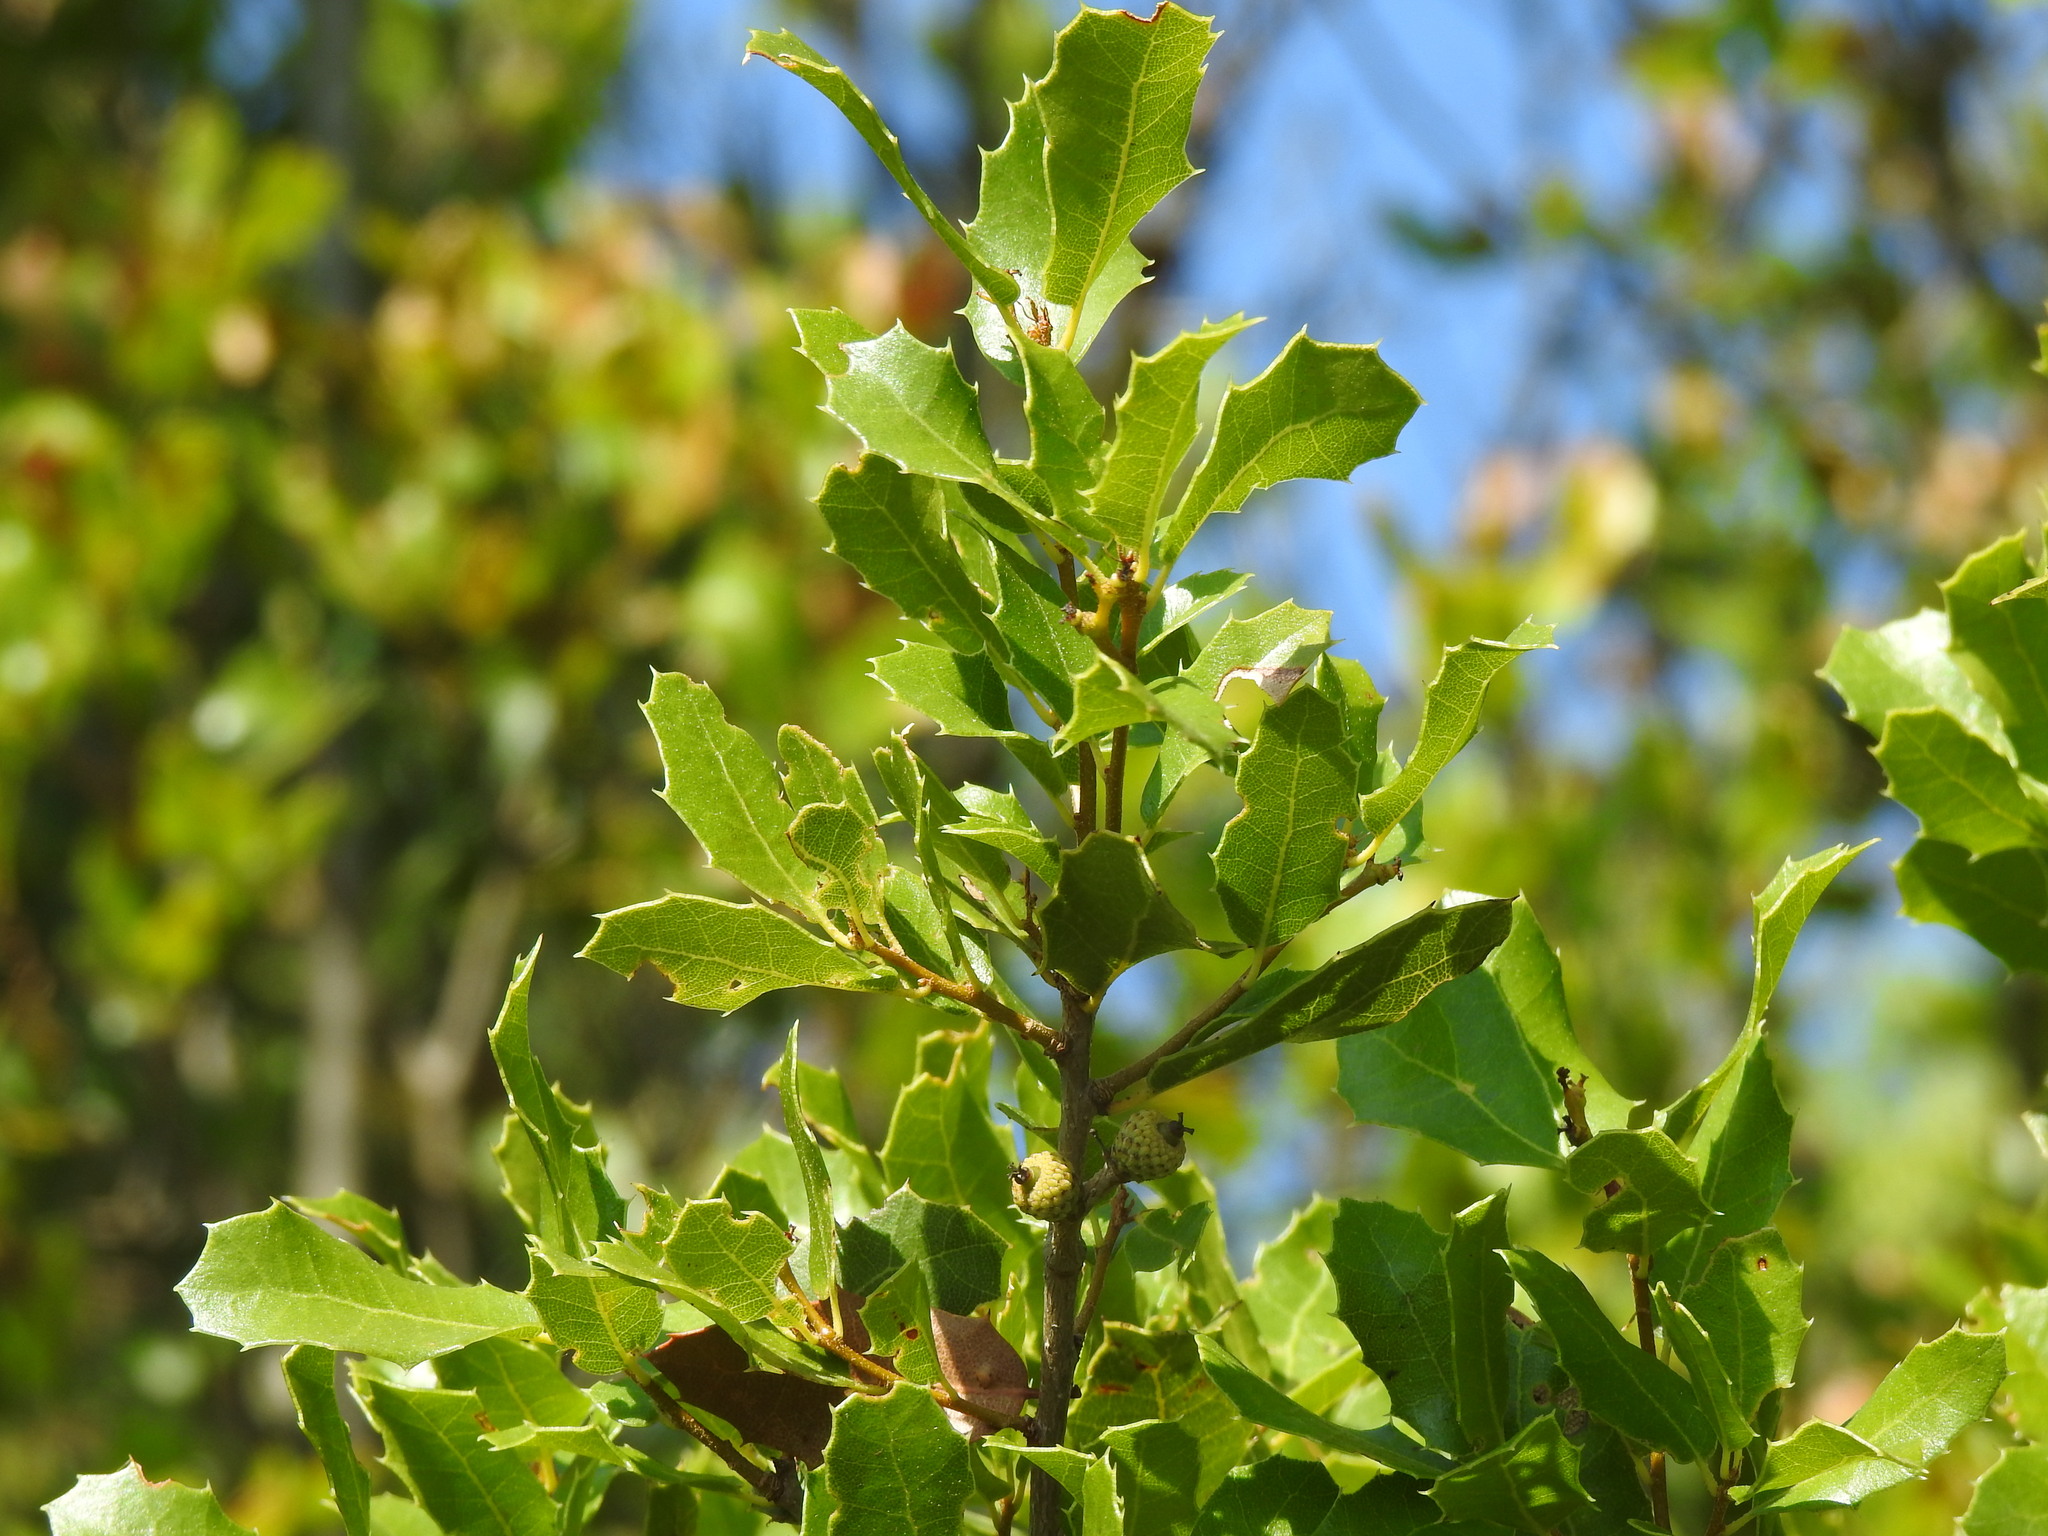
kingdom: Plantae
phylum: Tracheophyta
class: Magnoliopsida
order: Fagales
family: Fagaceae
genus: Quercus
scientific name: Quercus coccifera
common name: Kermes oak
